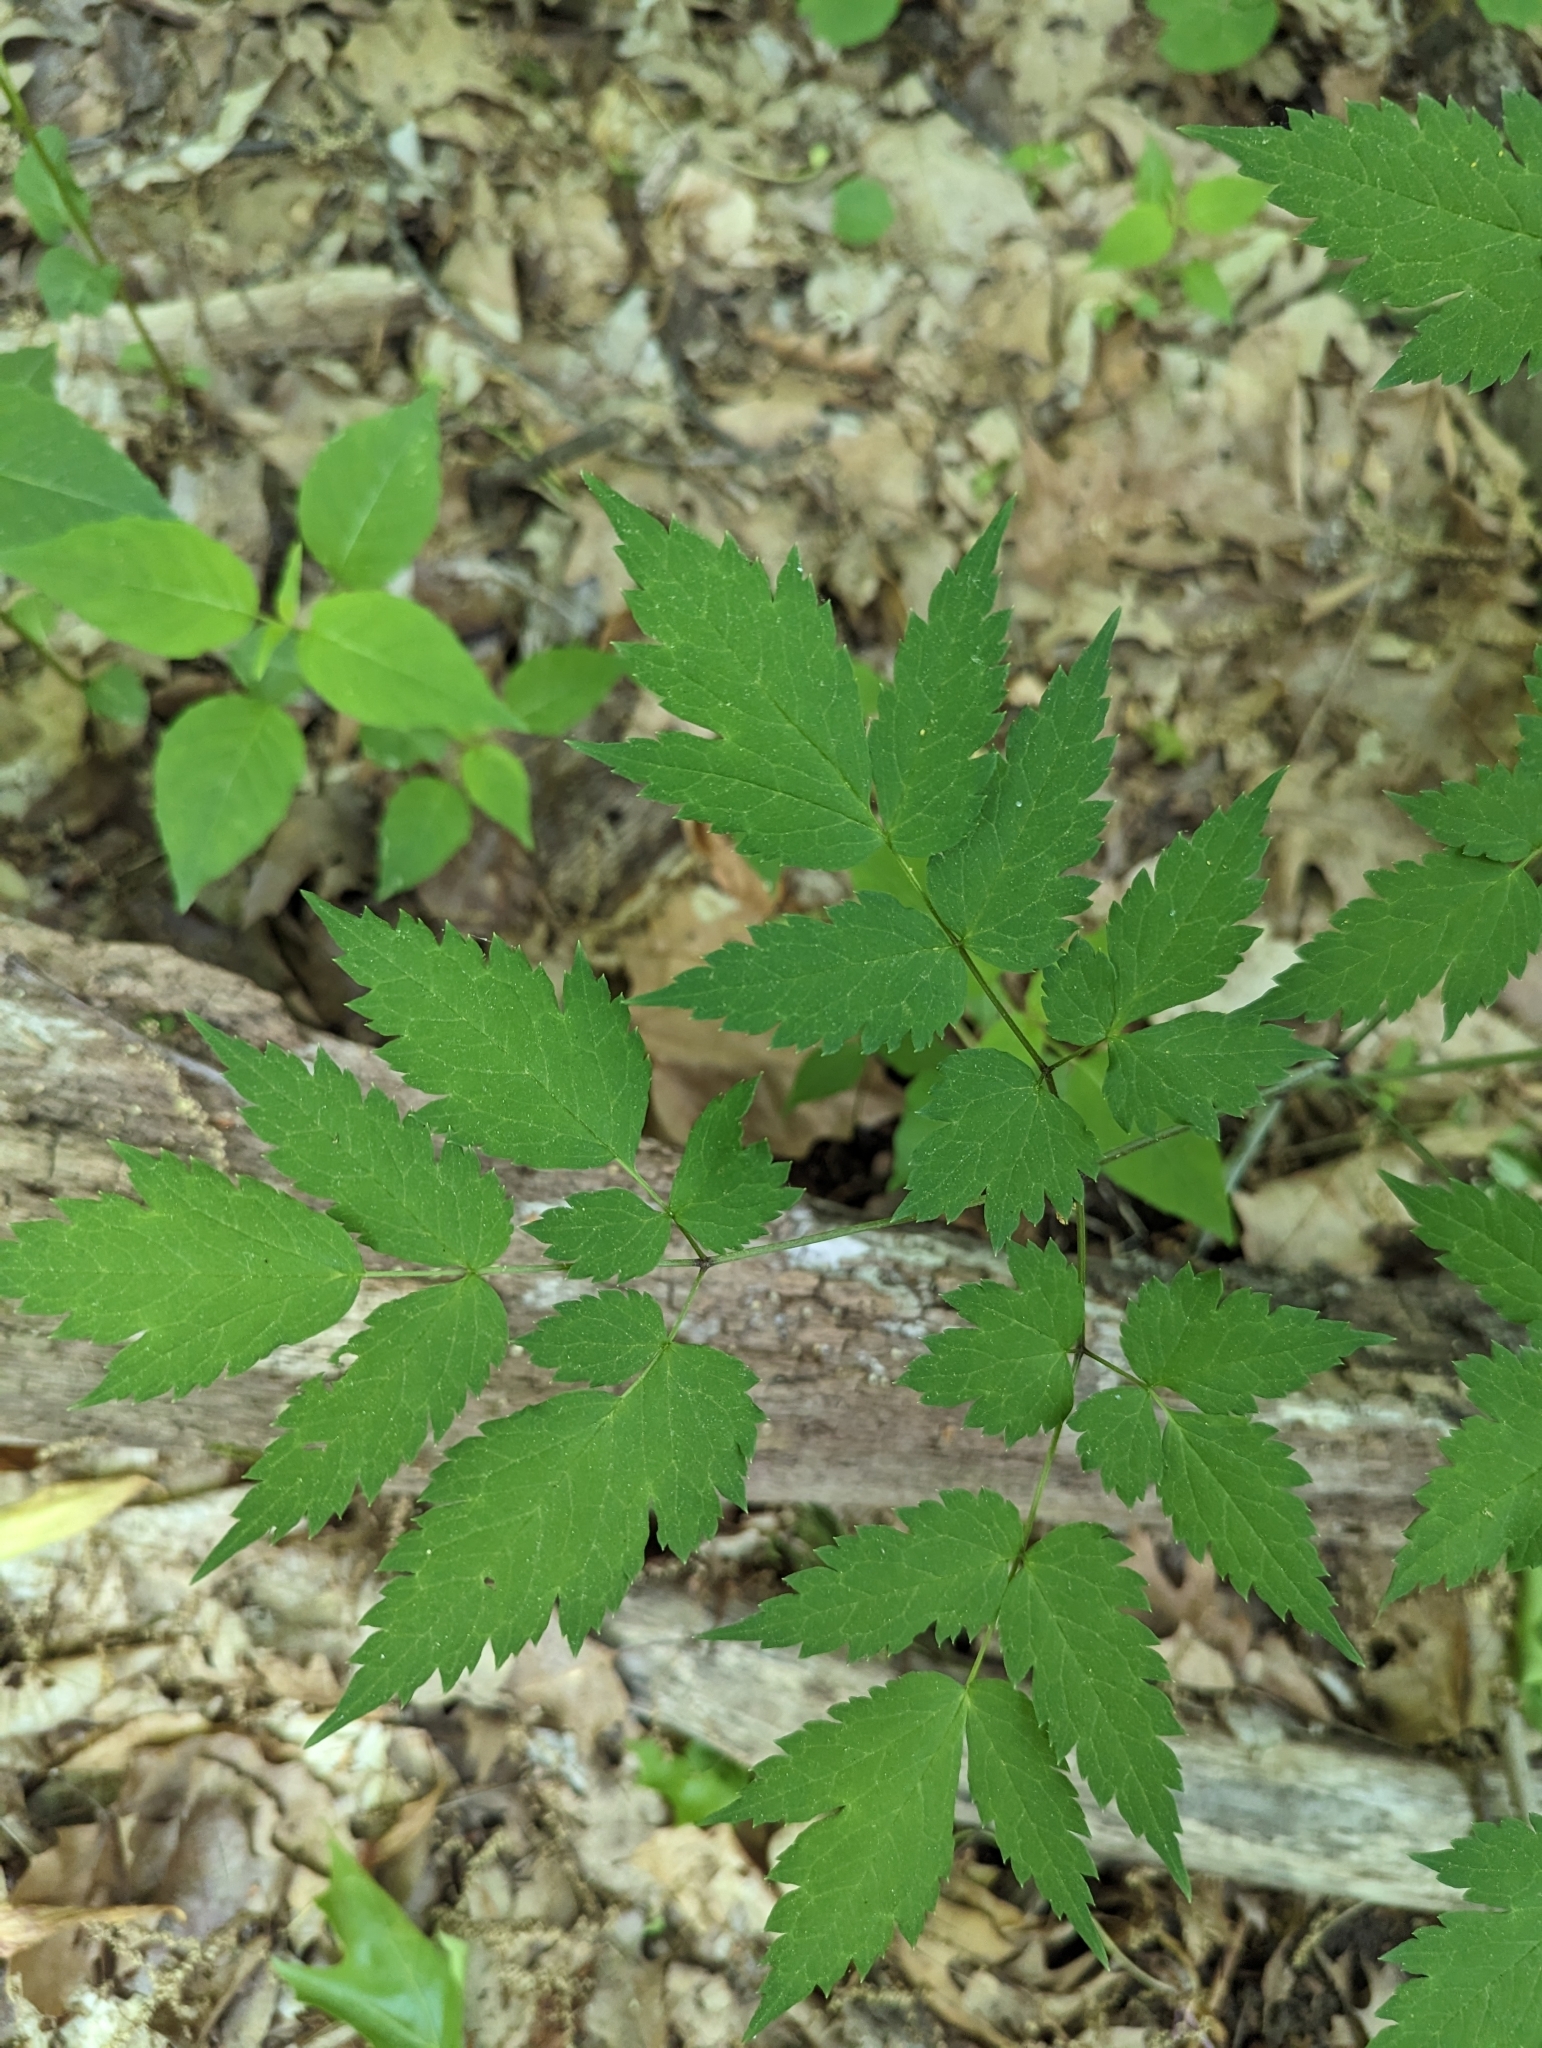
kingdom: Plantae
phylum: Tracheophyta
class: Magnoliopsida
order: Ranunculales
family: Ranunculaceae
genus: Actaea
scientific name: Actaea pachypoda
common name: Doll's-eyes
